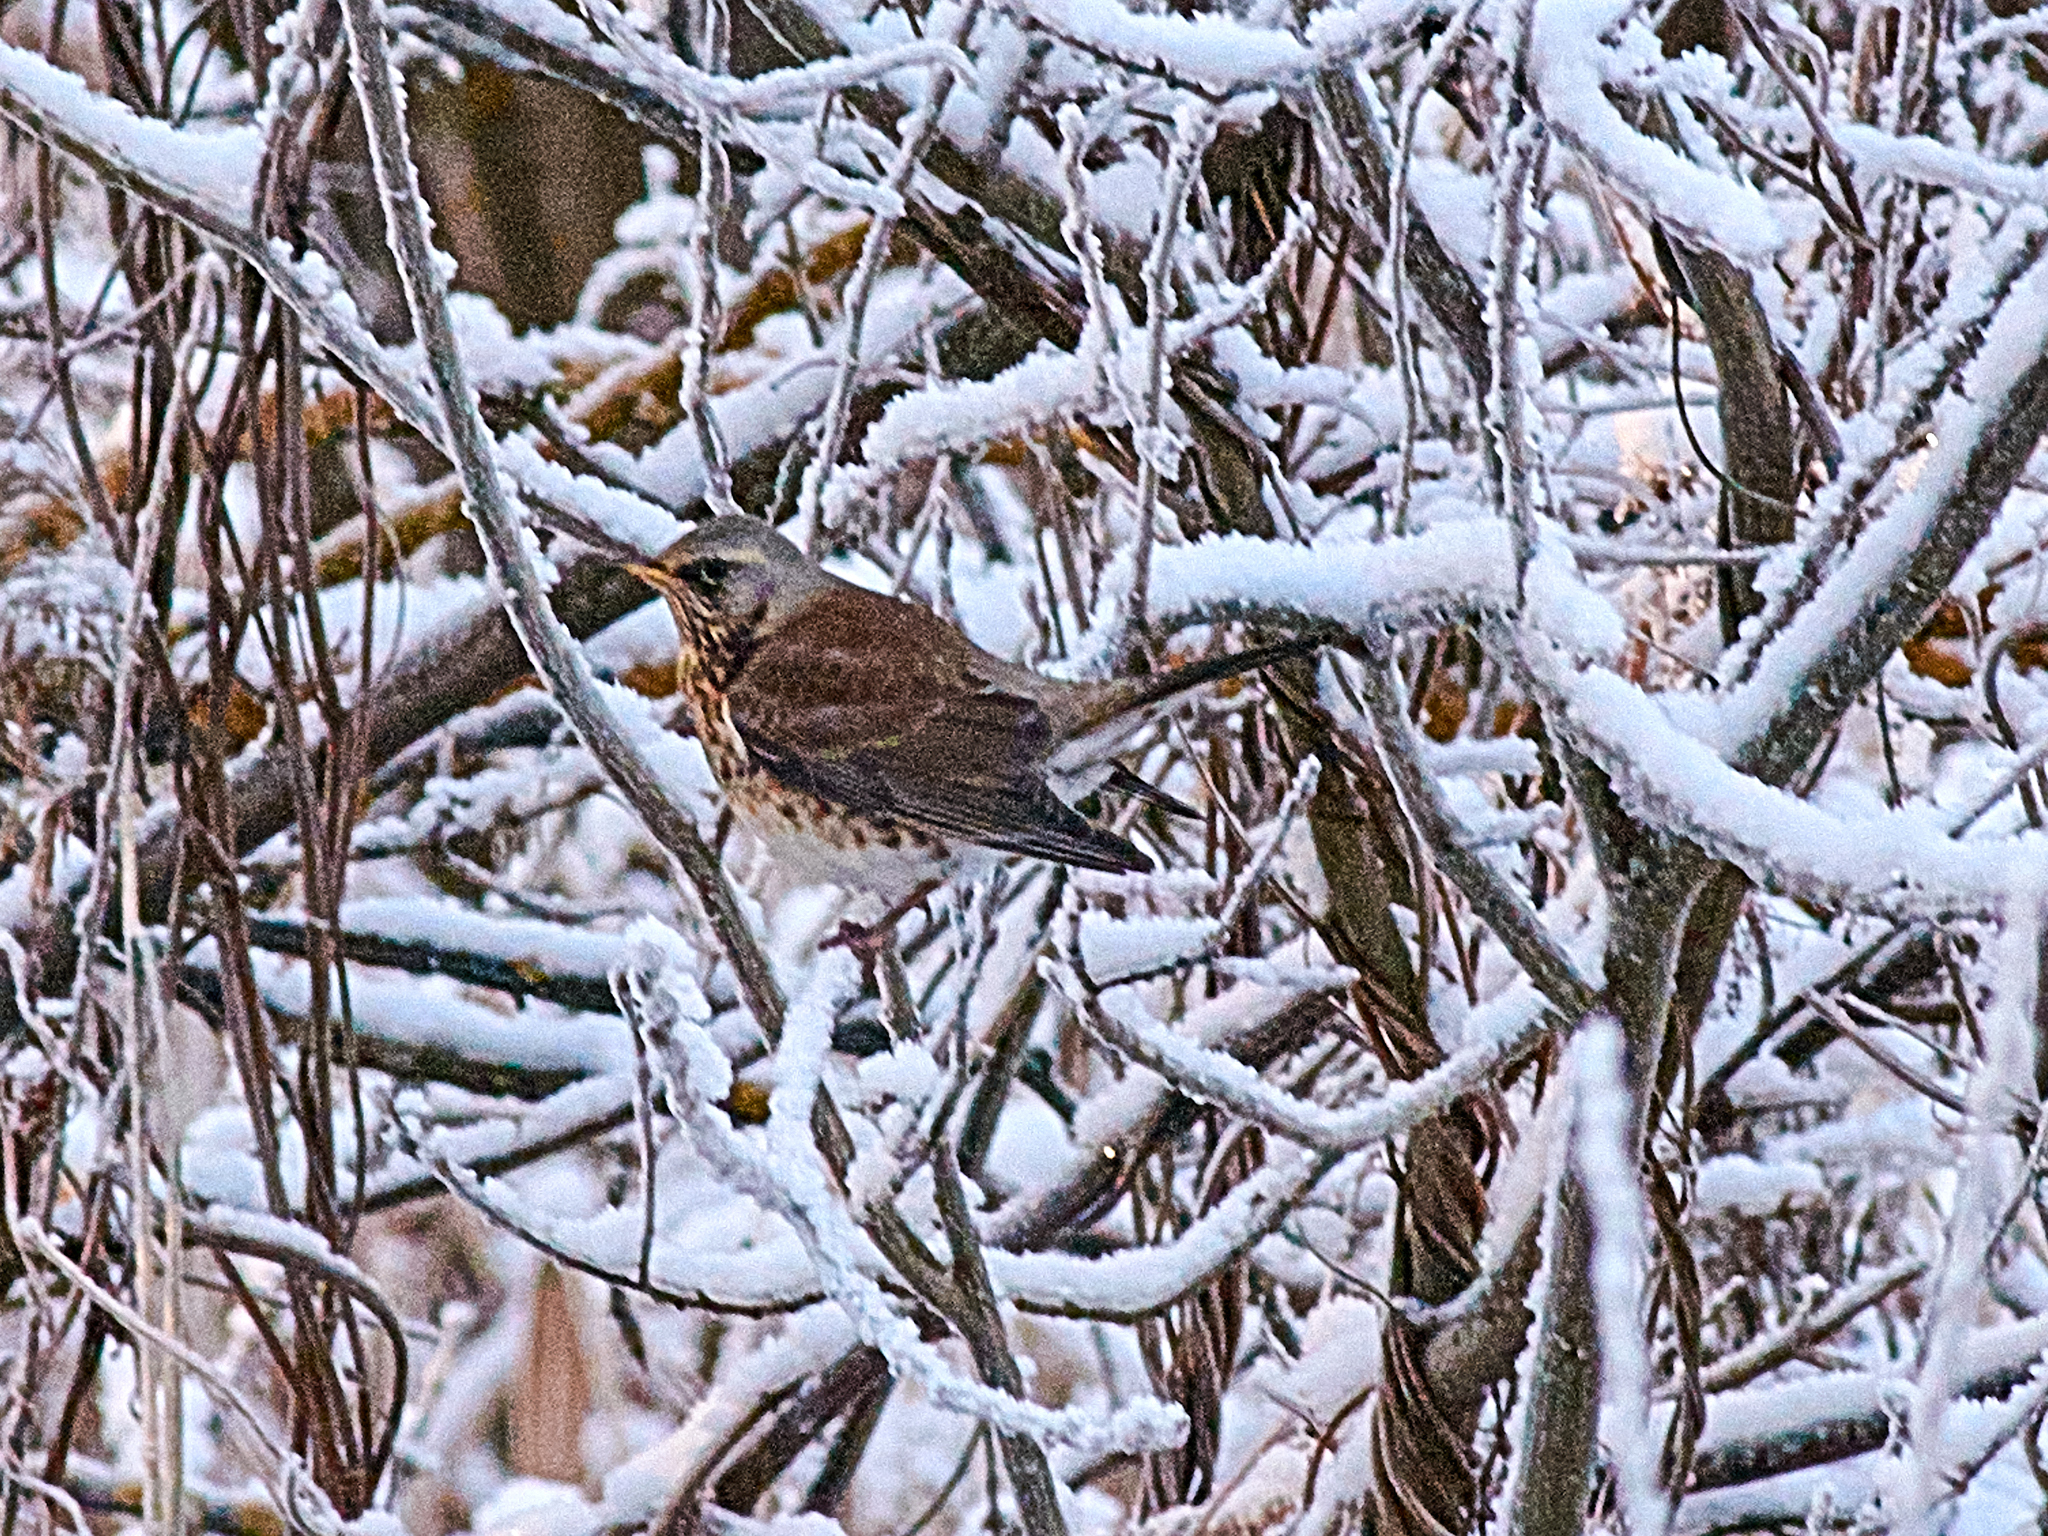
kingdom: Animalia
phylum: Chordata
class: Aves
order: Passeriformes
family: Turdidae
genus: Turdus
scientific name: Turdus pilaris
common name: Fieldfare
